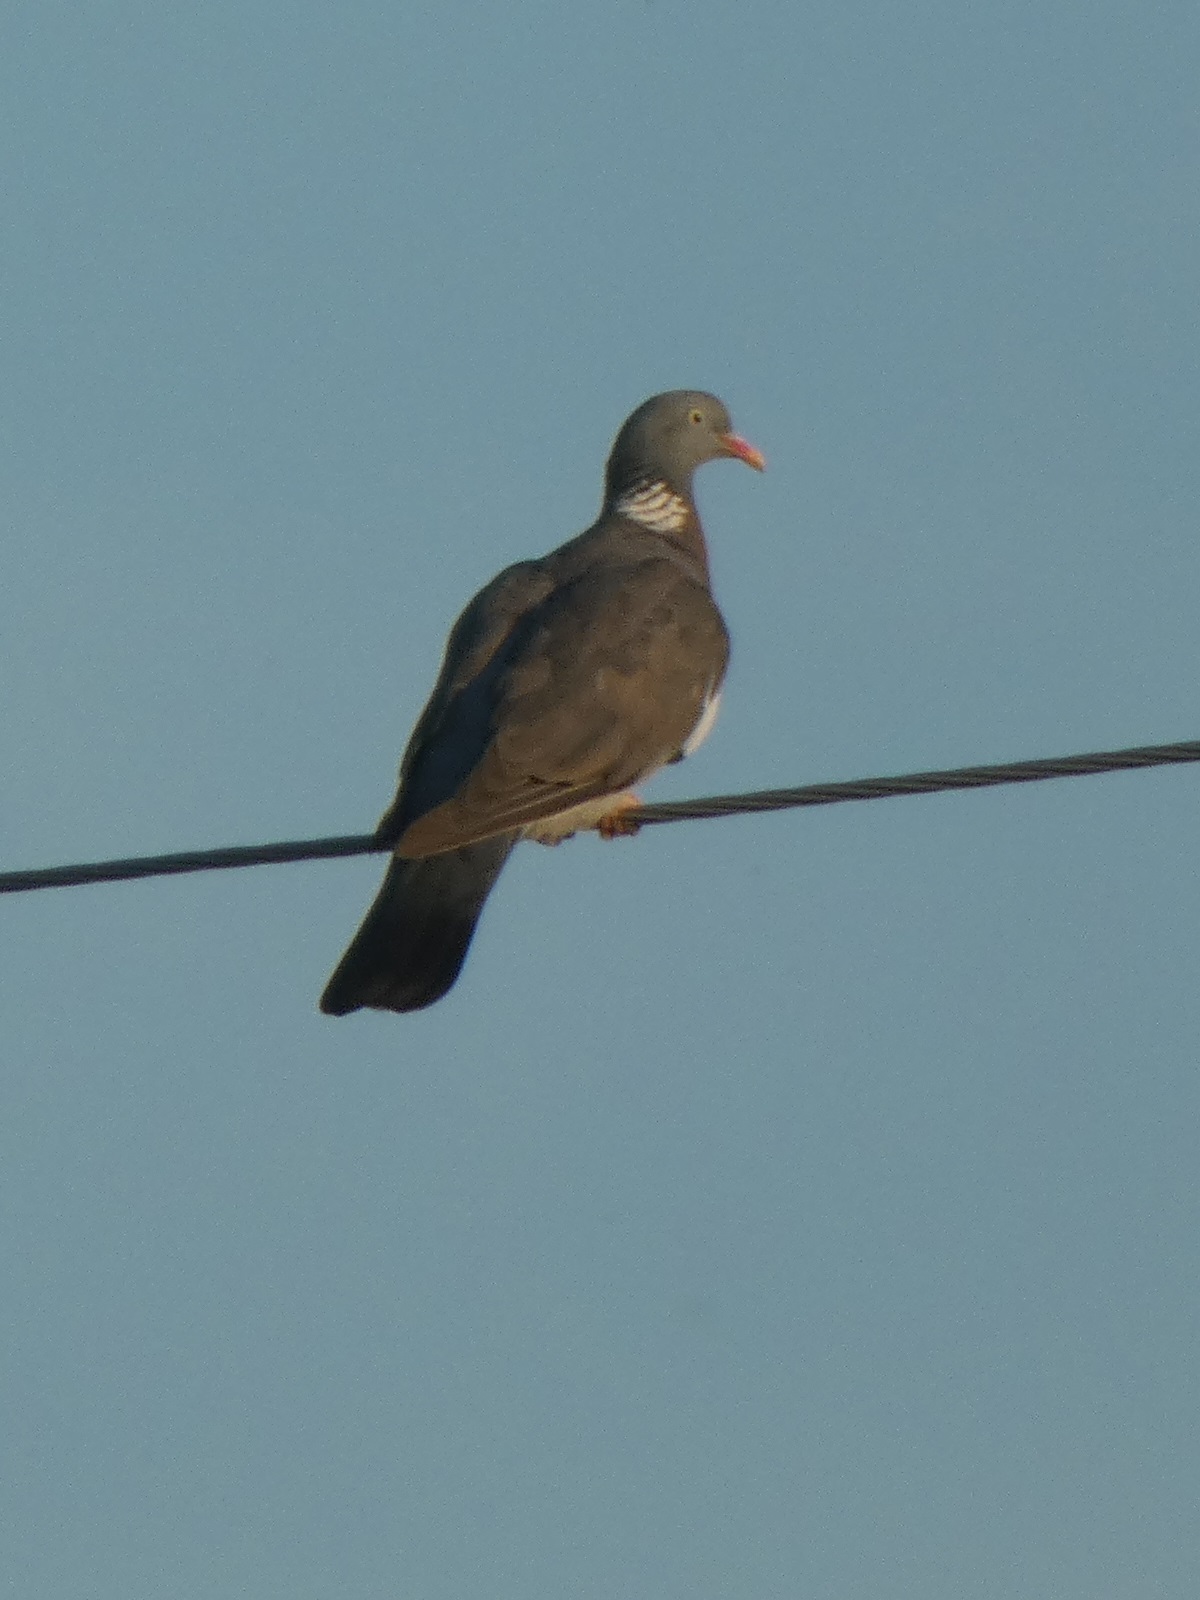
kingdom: Animalia
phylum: Chordata
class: Aves
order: Columbiformes
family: Columbidae
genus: Columba
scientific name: Columba palumbus
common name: Common wood pigeon
